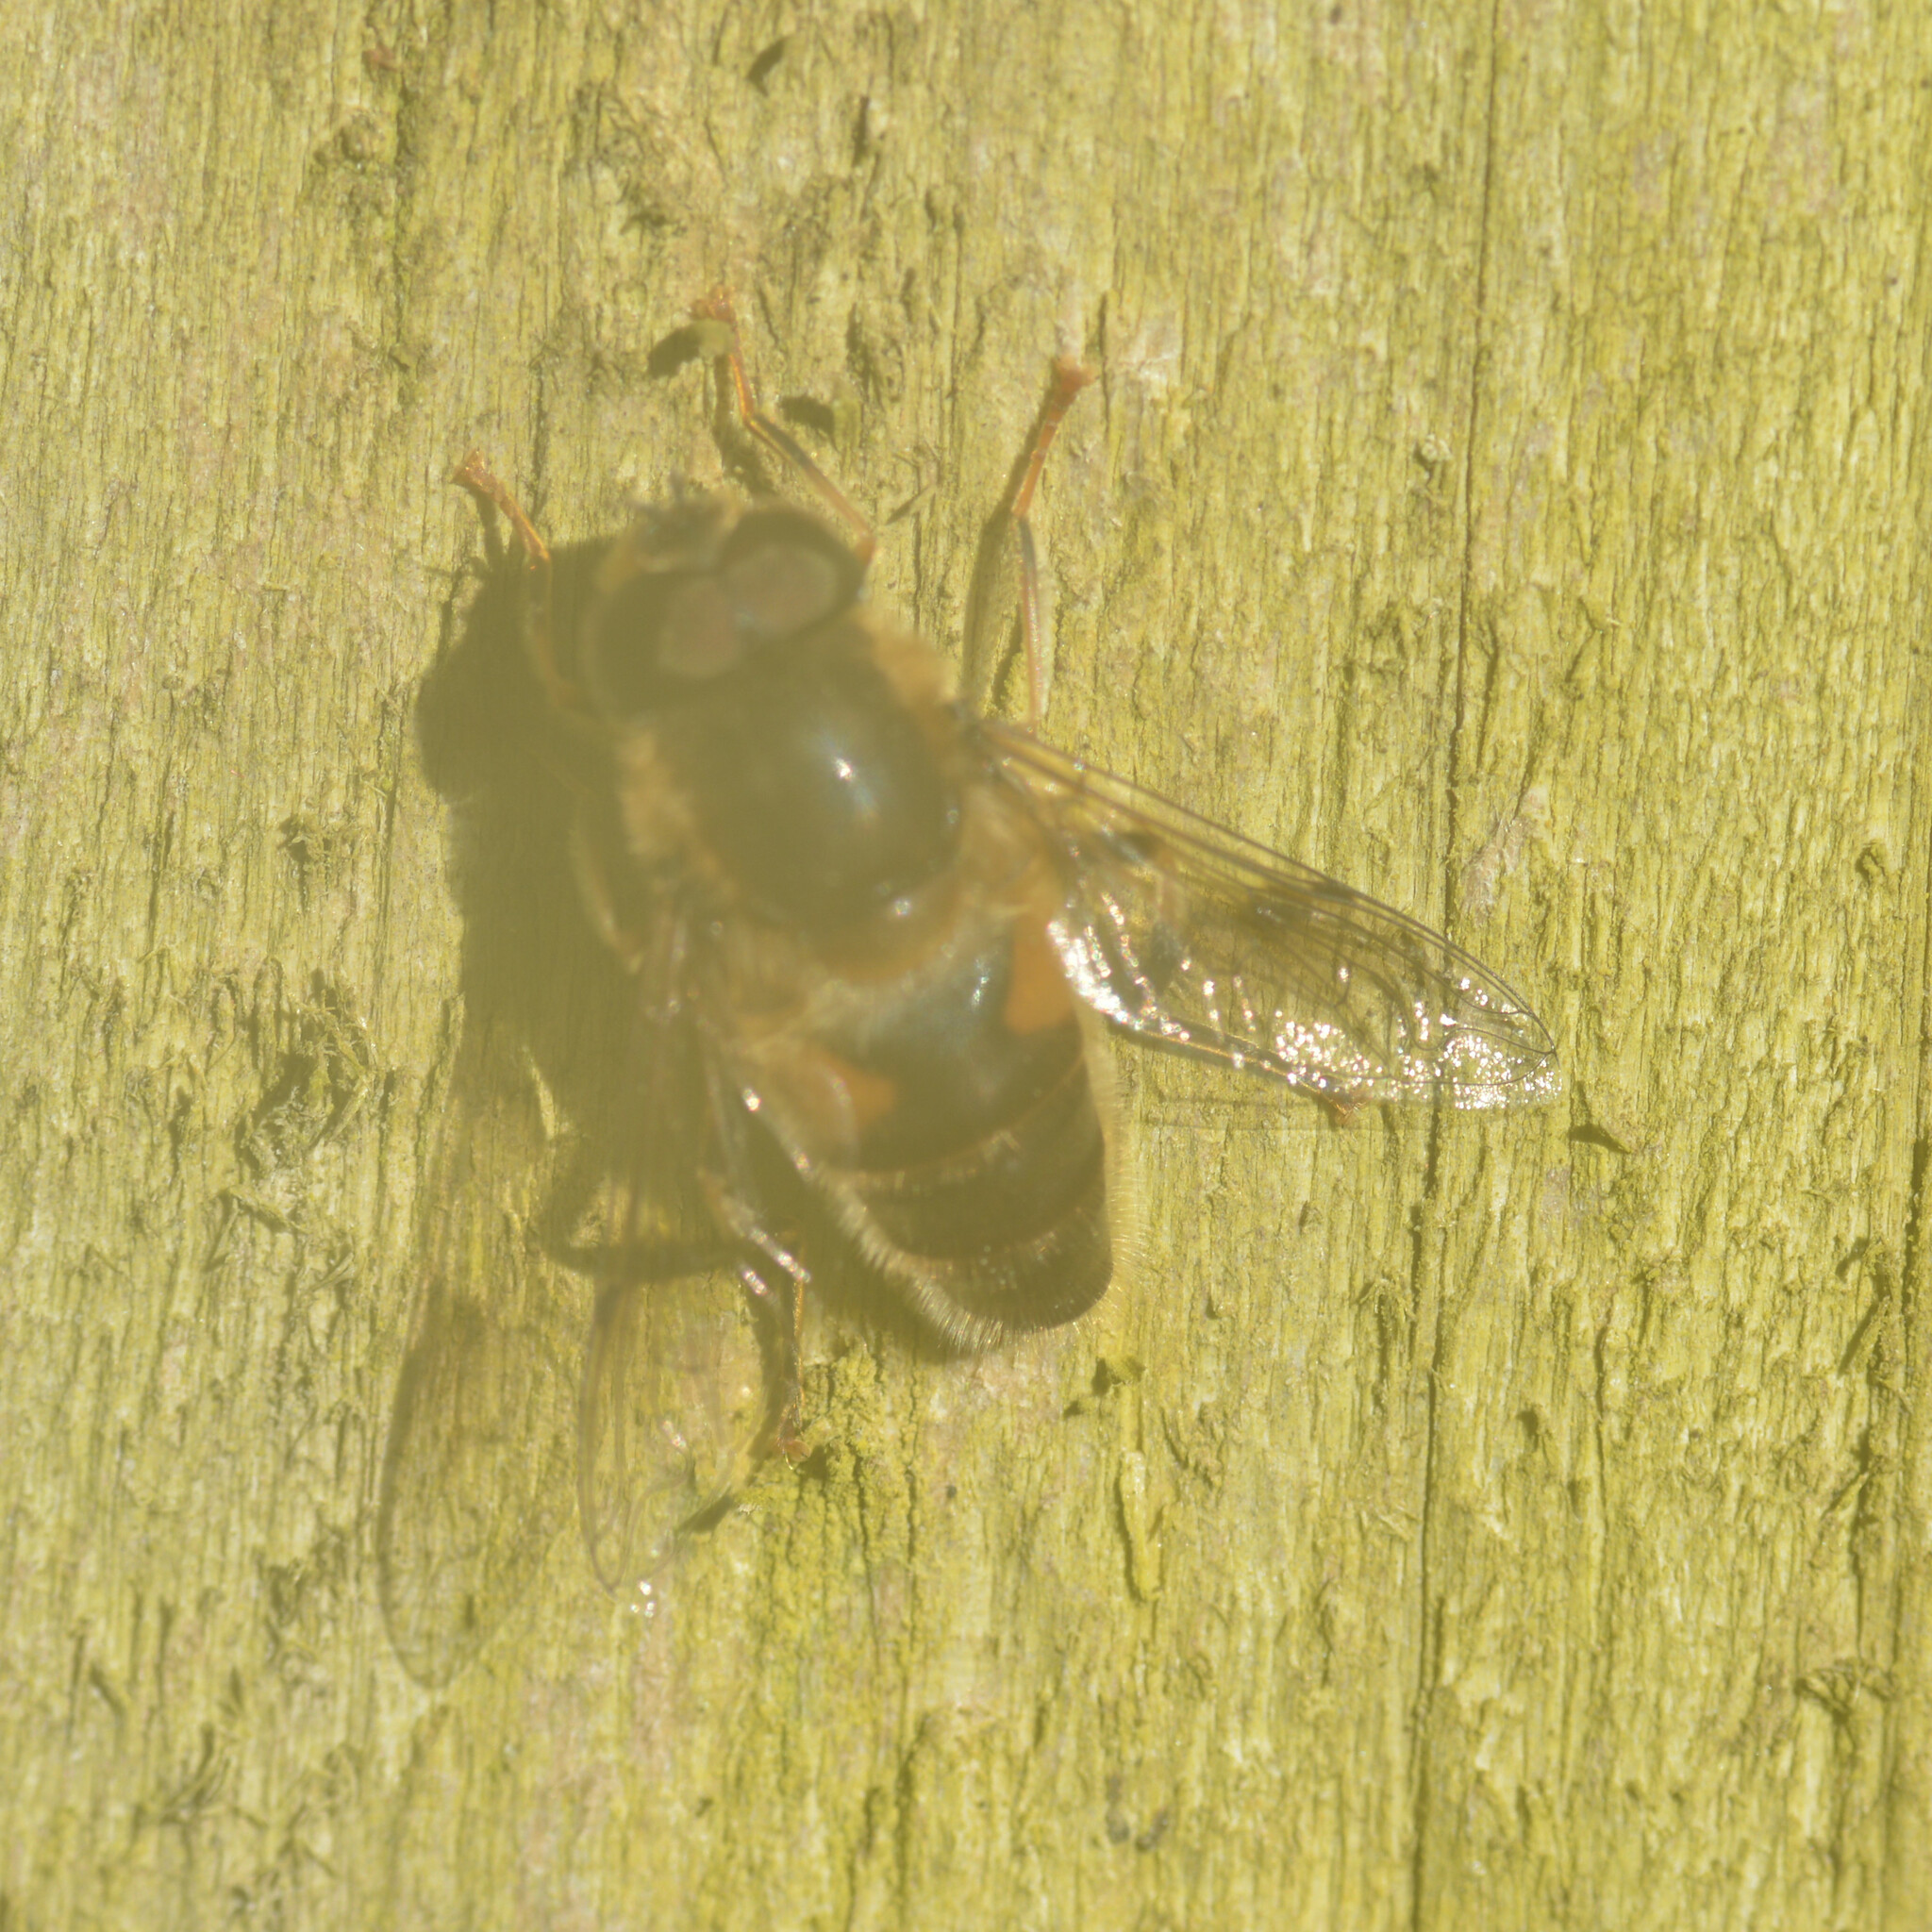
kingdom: Animalia
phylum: Arthropoda
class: Insecta
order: Diptera
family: Syrphidae
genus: Eristalis
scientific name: Eristalis pertinax
